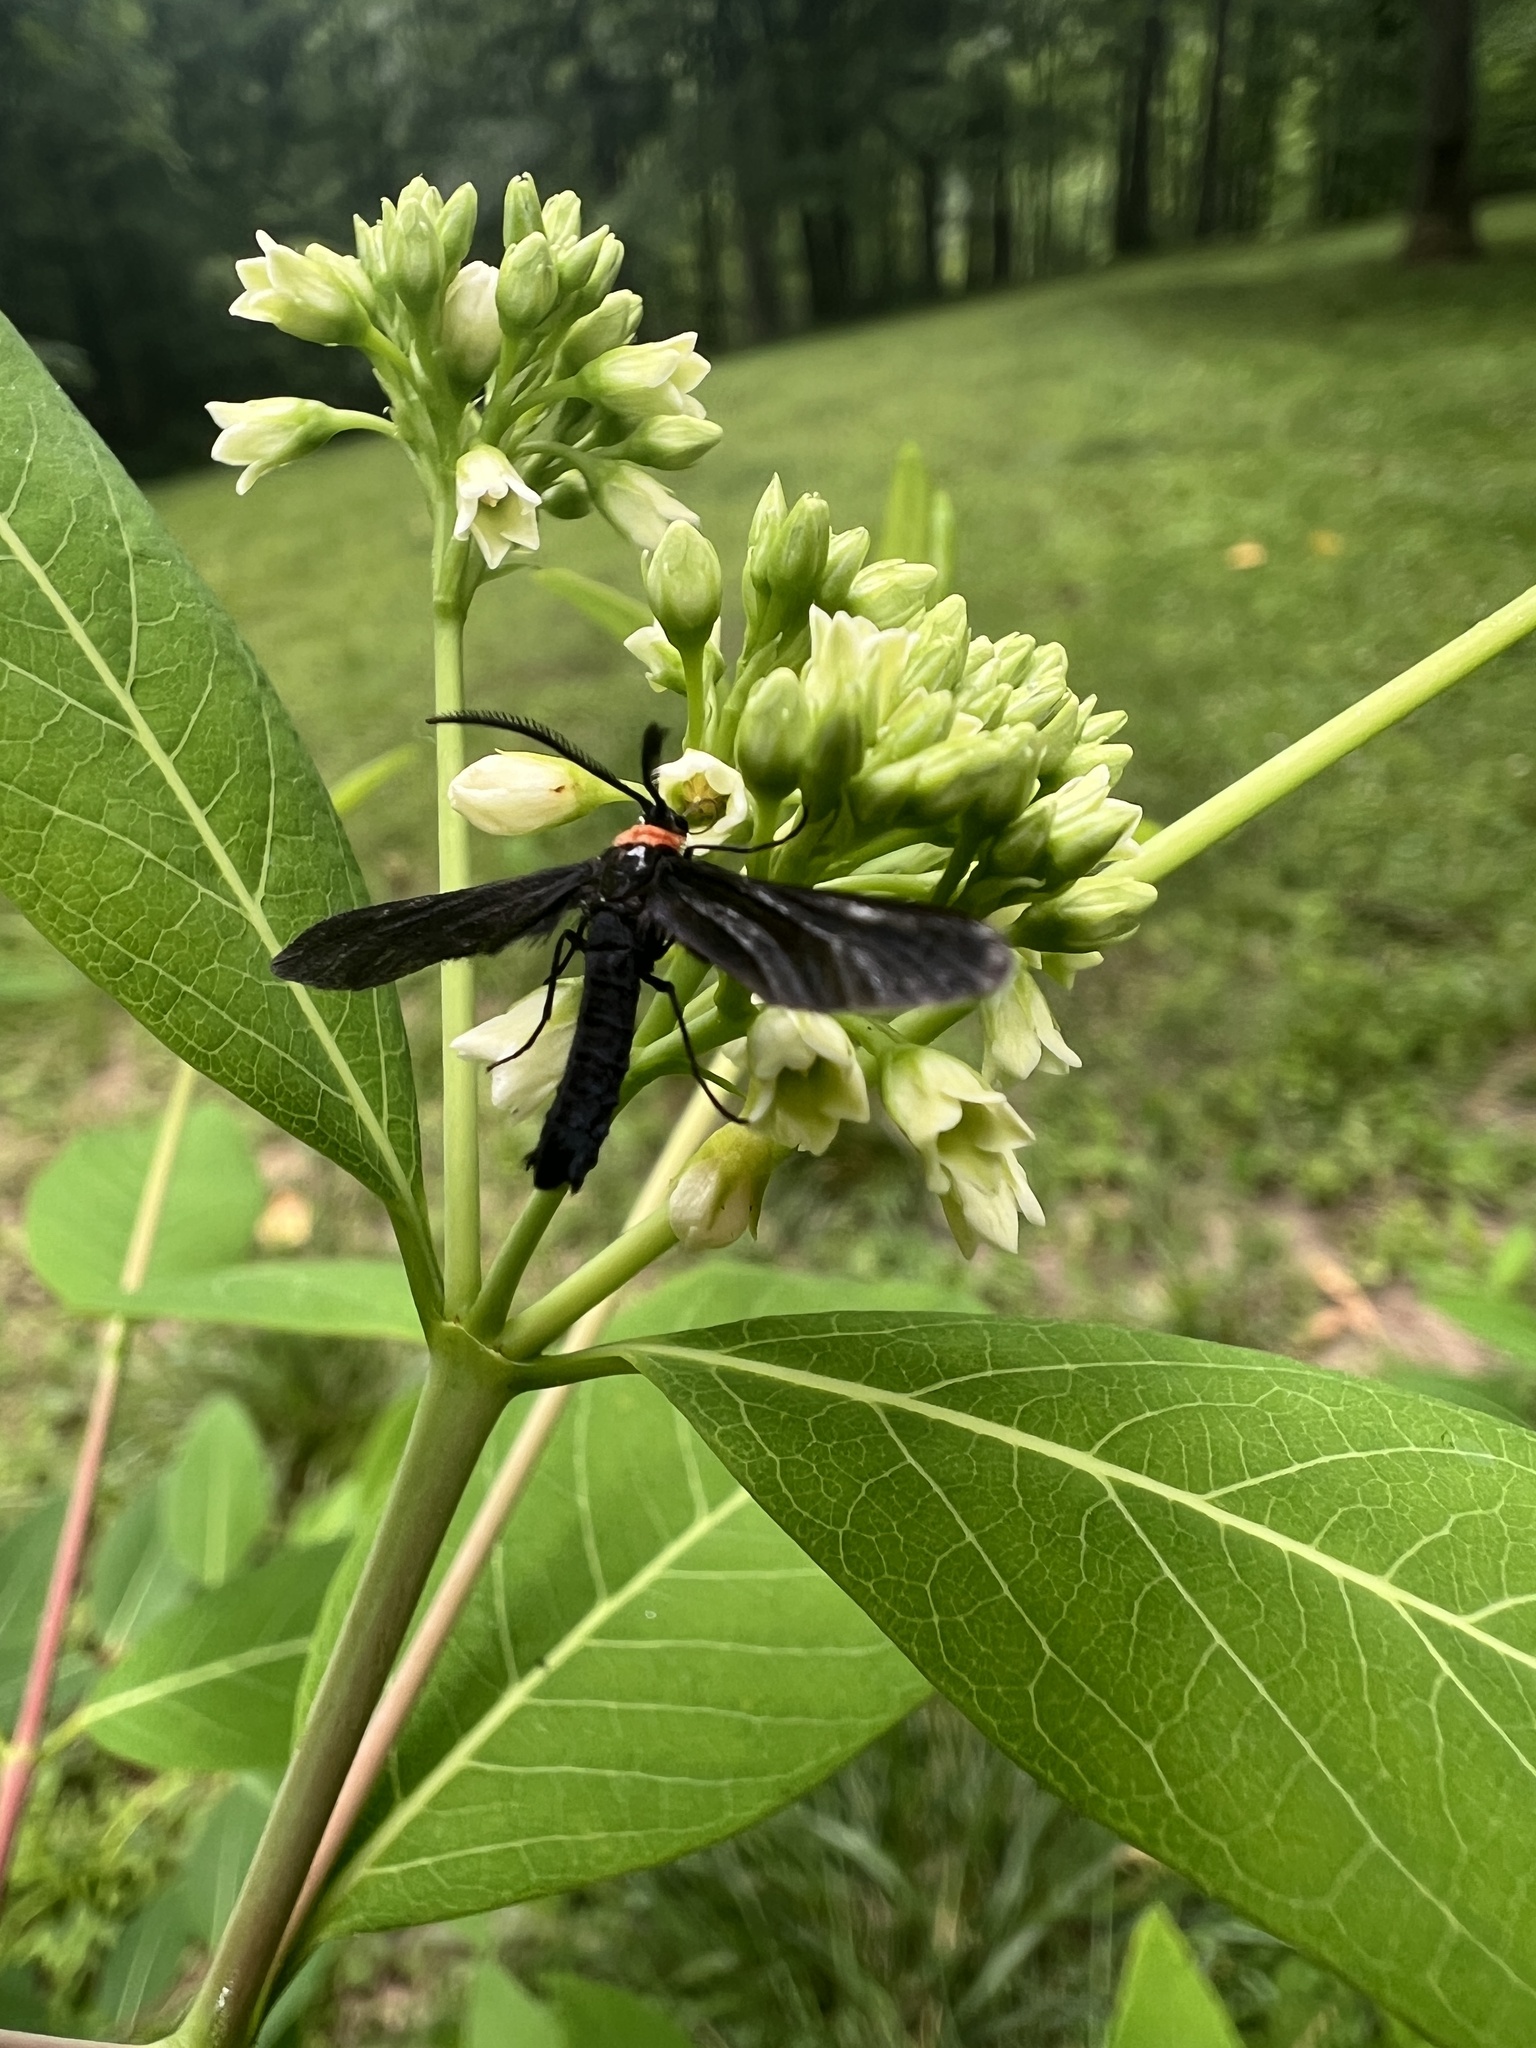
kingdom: Animalia
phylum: Arthropoda
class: Insecta
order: Lepidoptera
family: Zygaenidae
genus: Harrisina
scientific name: Harrisina americana
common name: Grapeleaf skeletonizer moth
